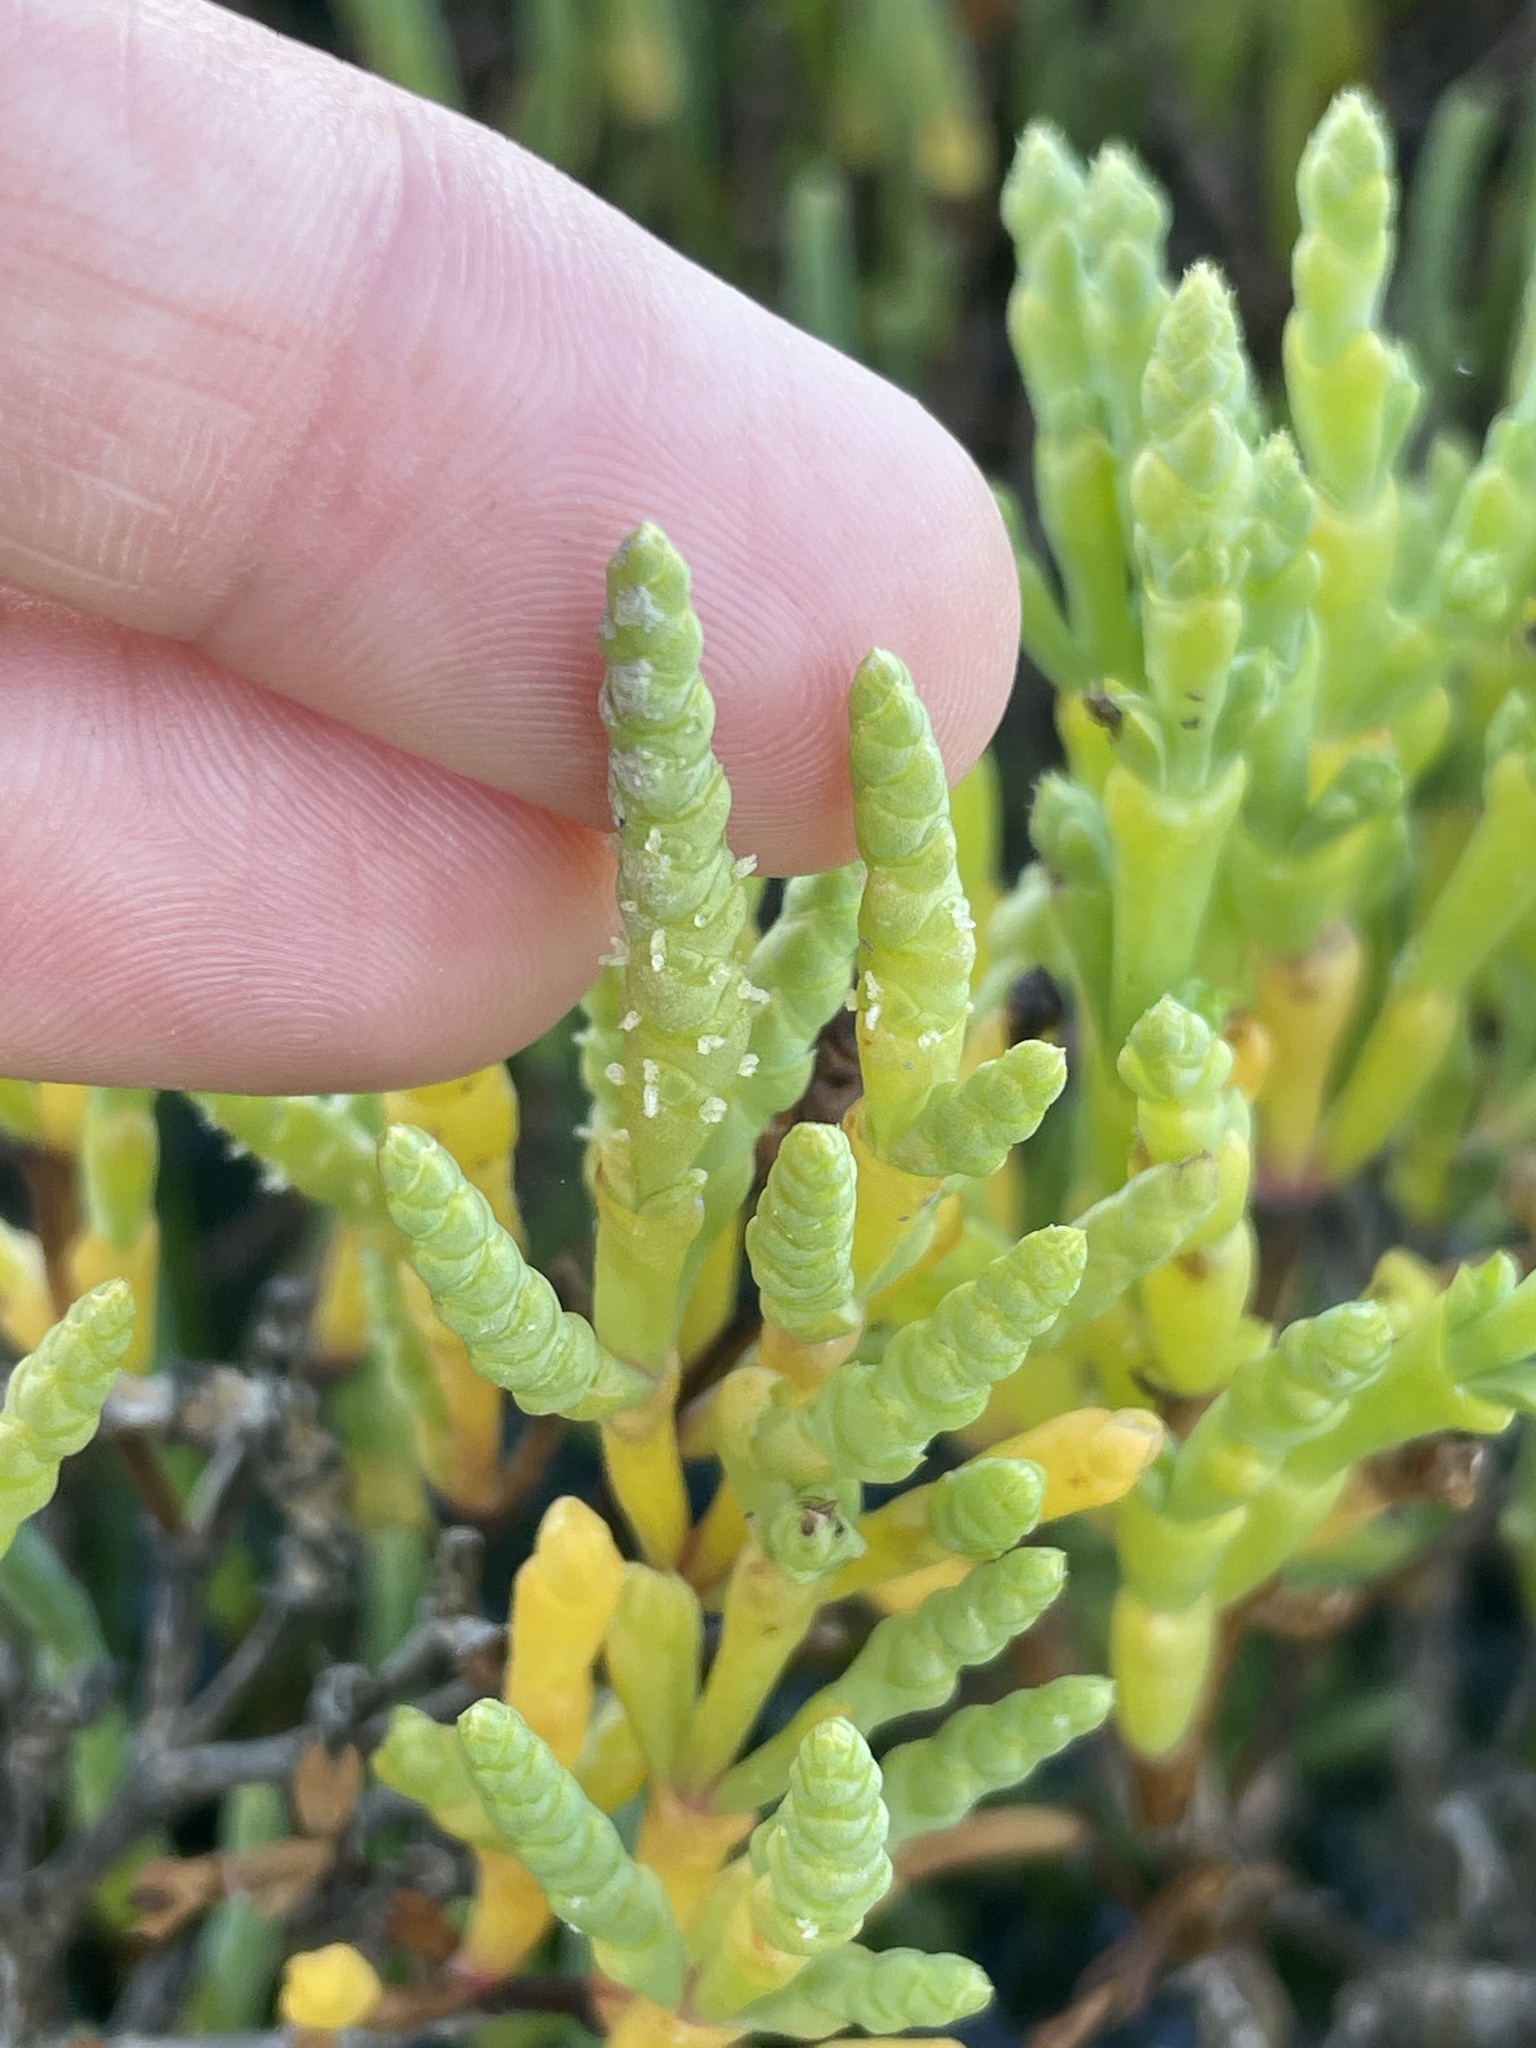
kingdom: Plantae
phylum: Tracheophyta
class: Magnoliopsida
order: Caryophyllales
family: Amaranthaceae
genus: Salicornia
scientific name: Salicornia bigelovii
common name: Dwarf glasswort
